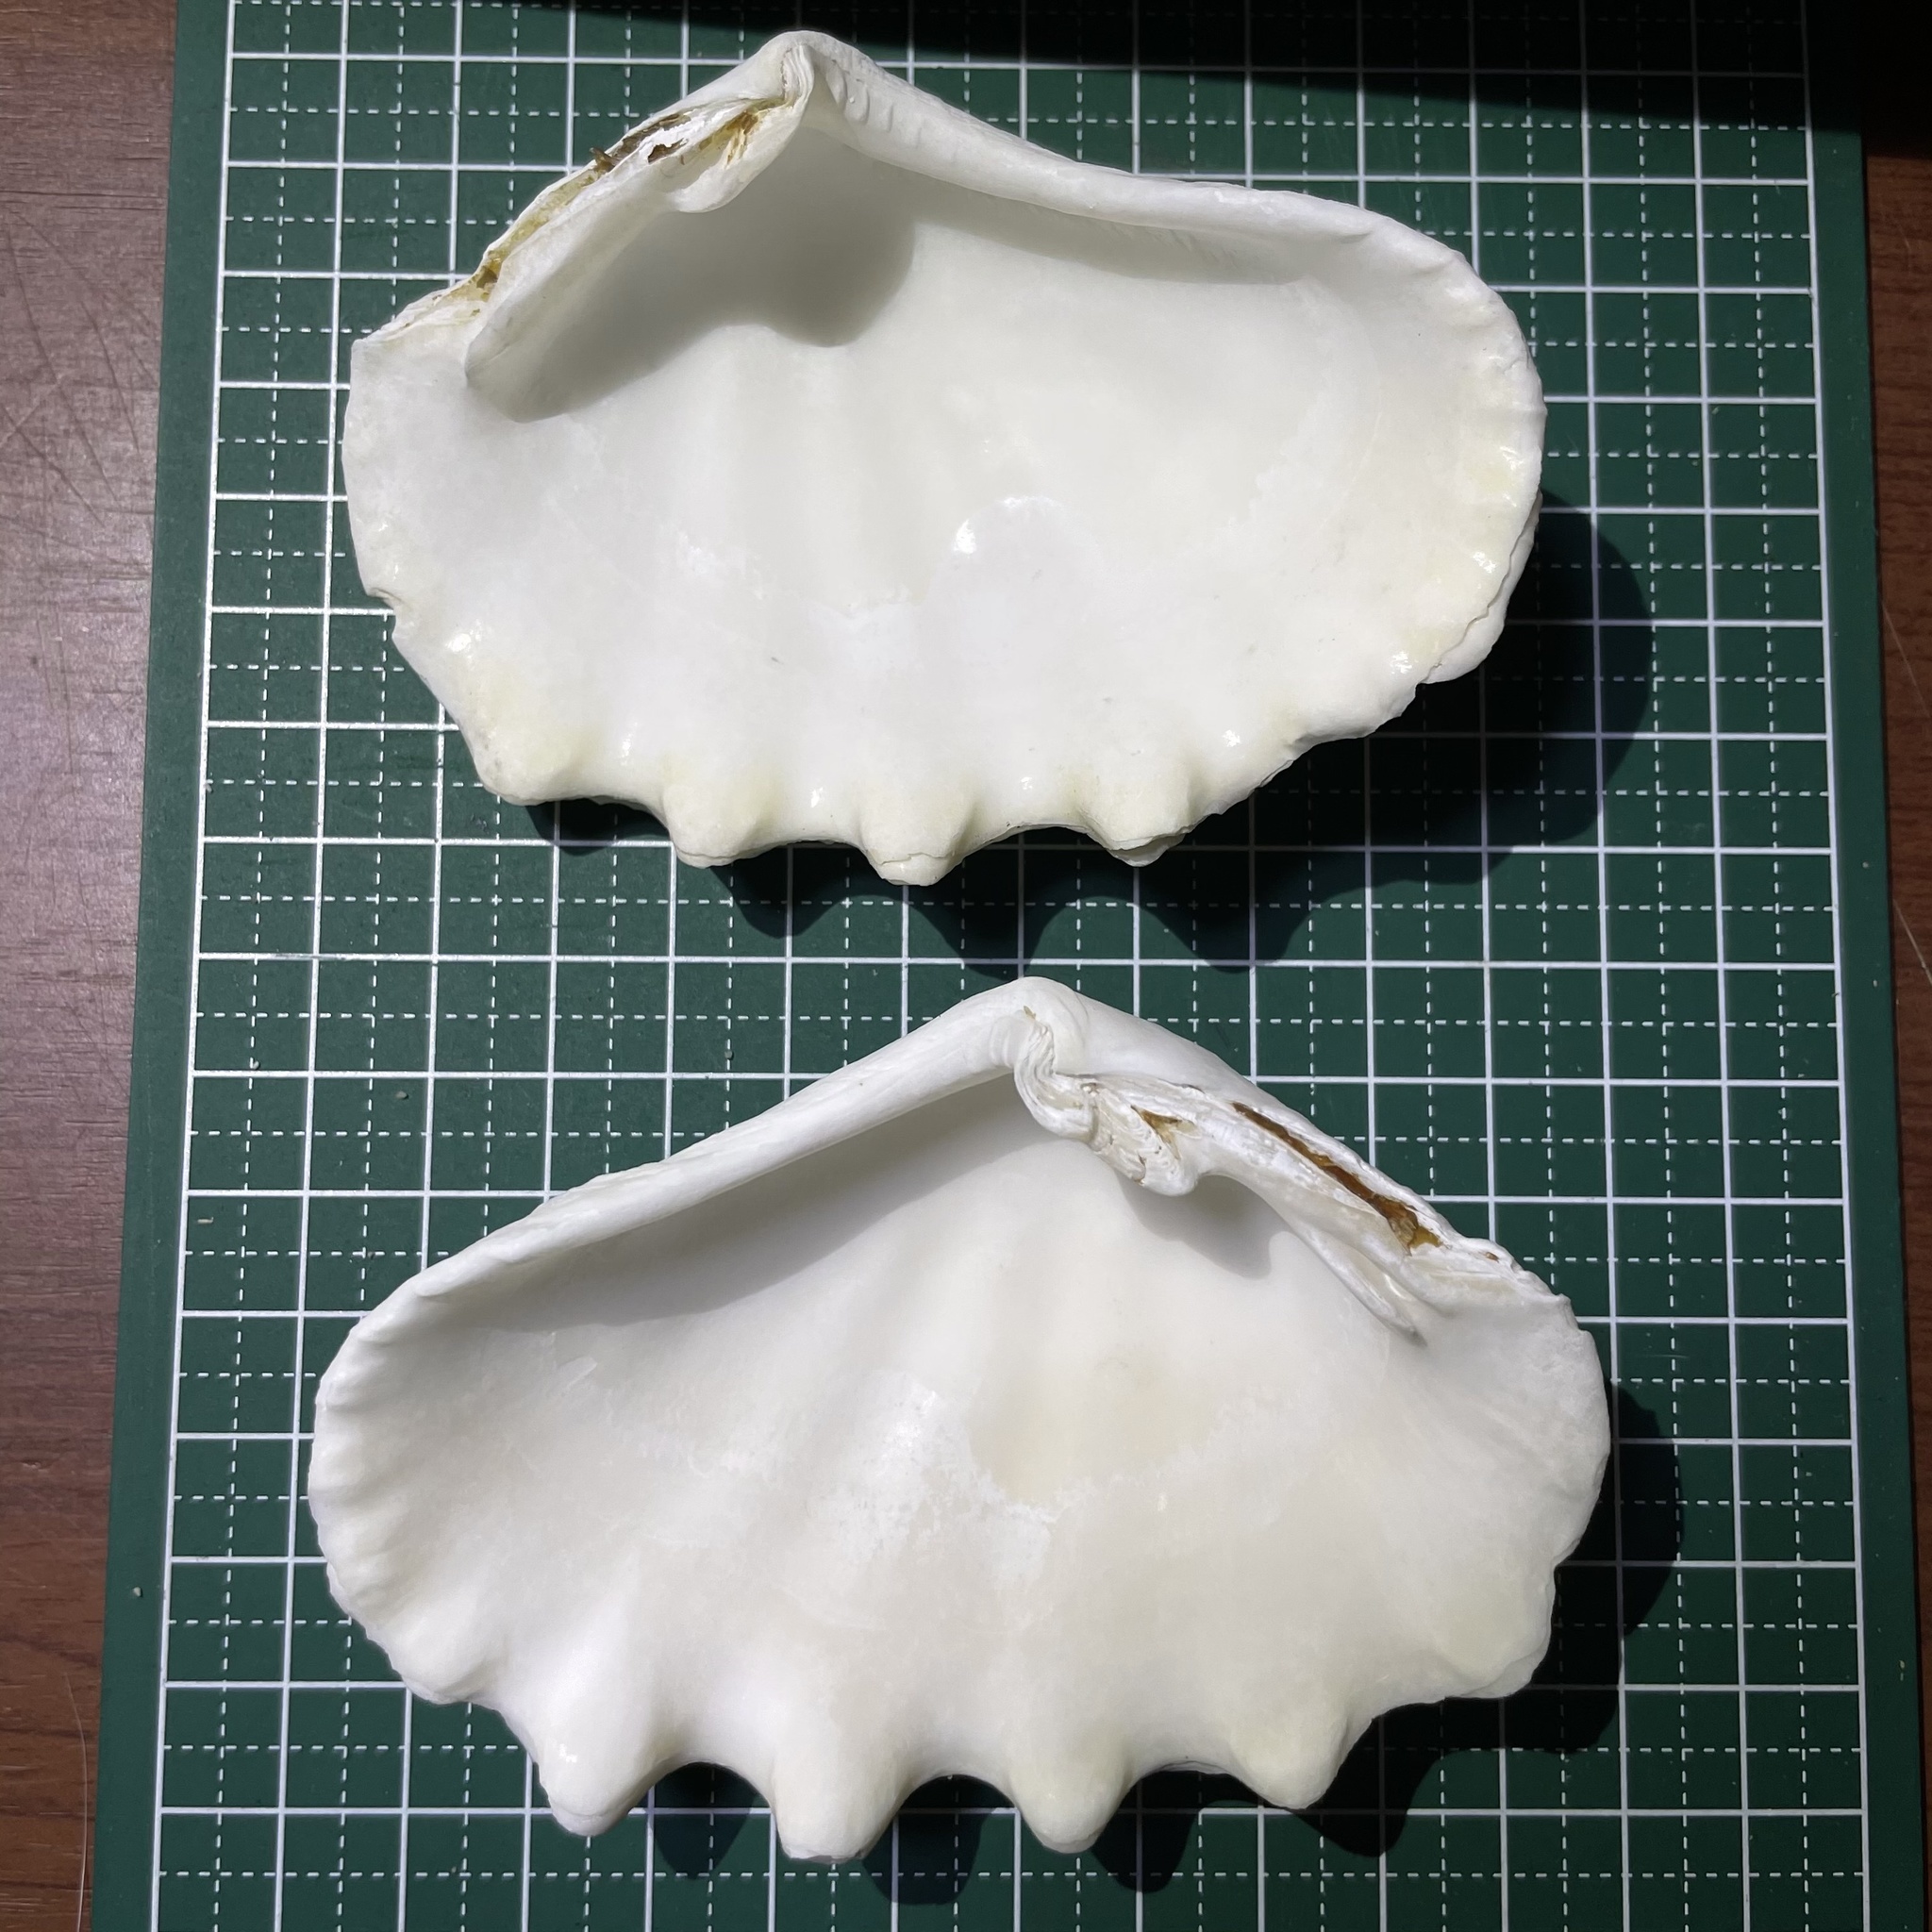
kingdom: Animalia
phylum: Mollusca
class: Bivalvia
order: Cardiida
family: Cardiidae
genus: Tridacna
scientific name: Tridacna crocea
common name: Boring clam
